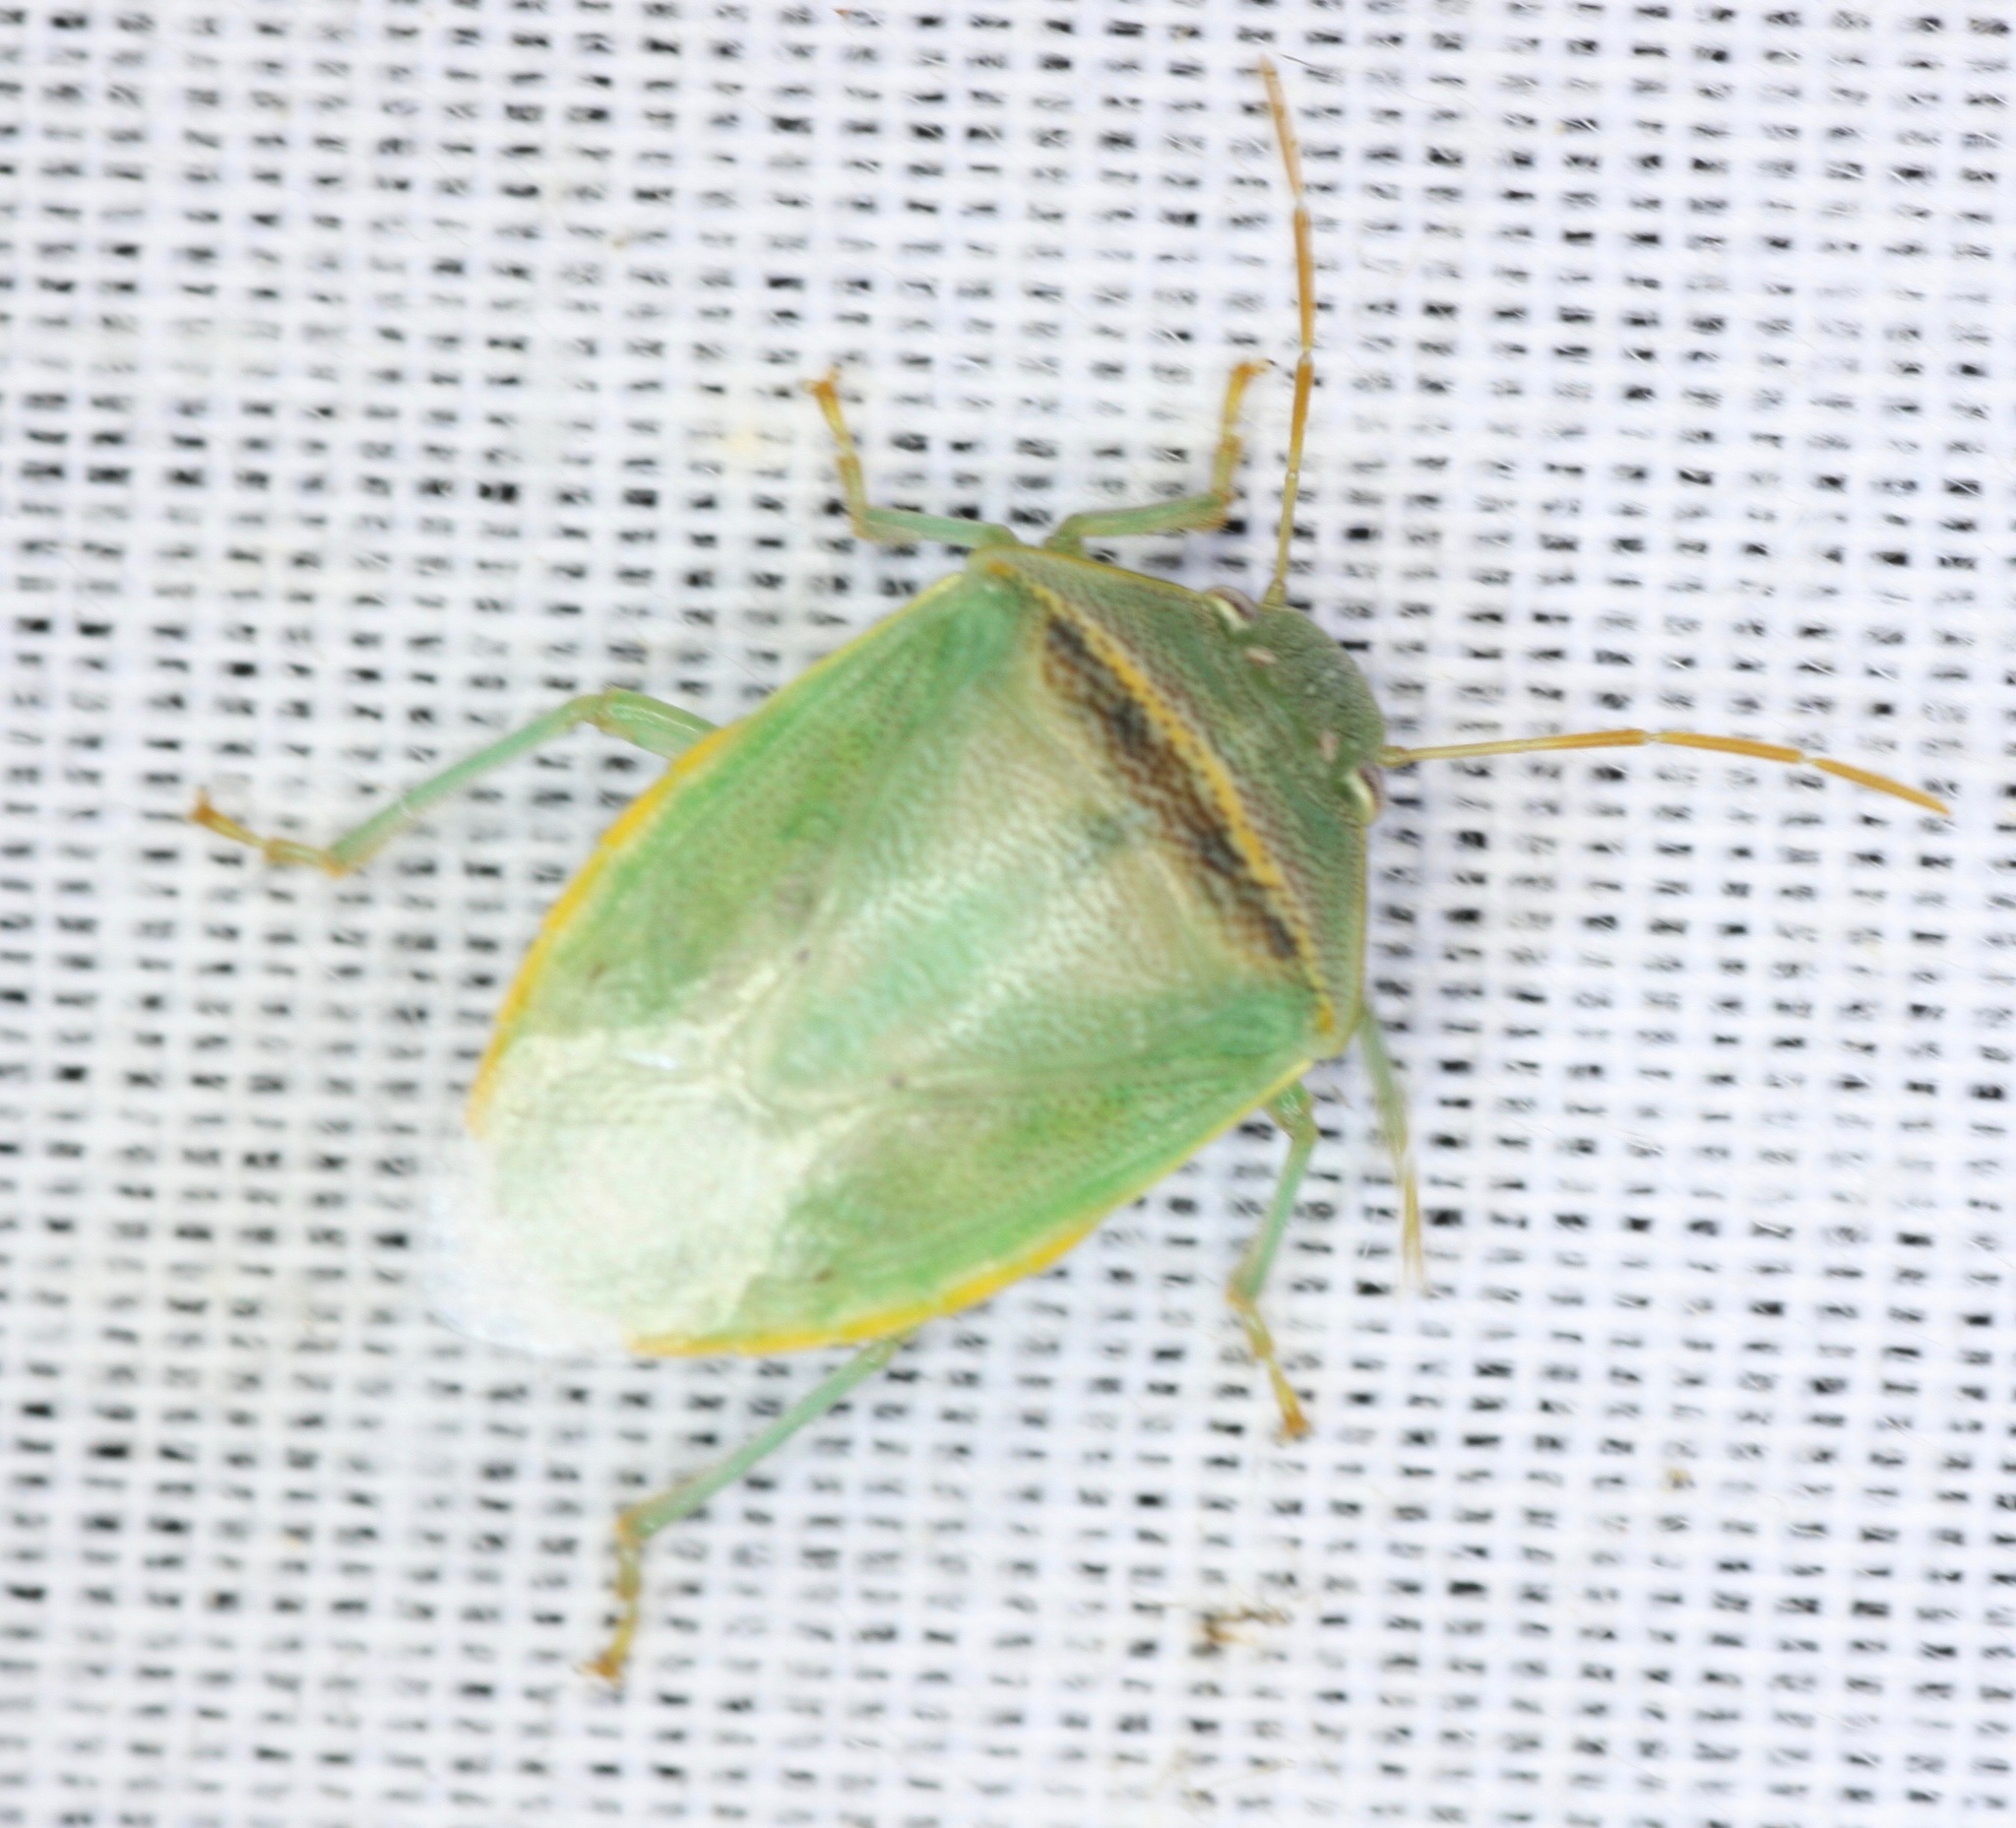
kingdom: Animalia
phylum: Arthropoda
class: Insecta
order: Hemiptera
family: Pentatomidae
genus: Piezodorus
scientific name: Piezodorus guildinii
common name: Redbanded stink bug
